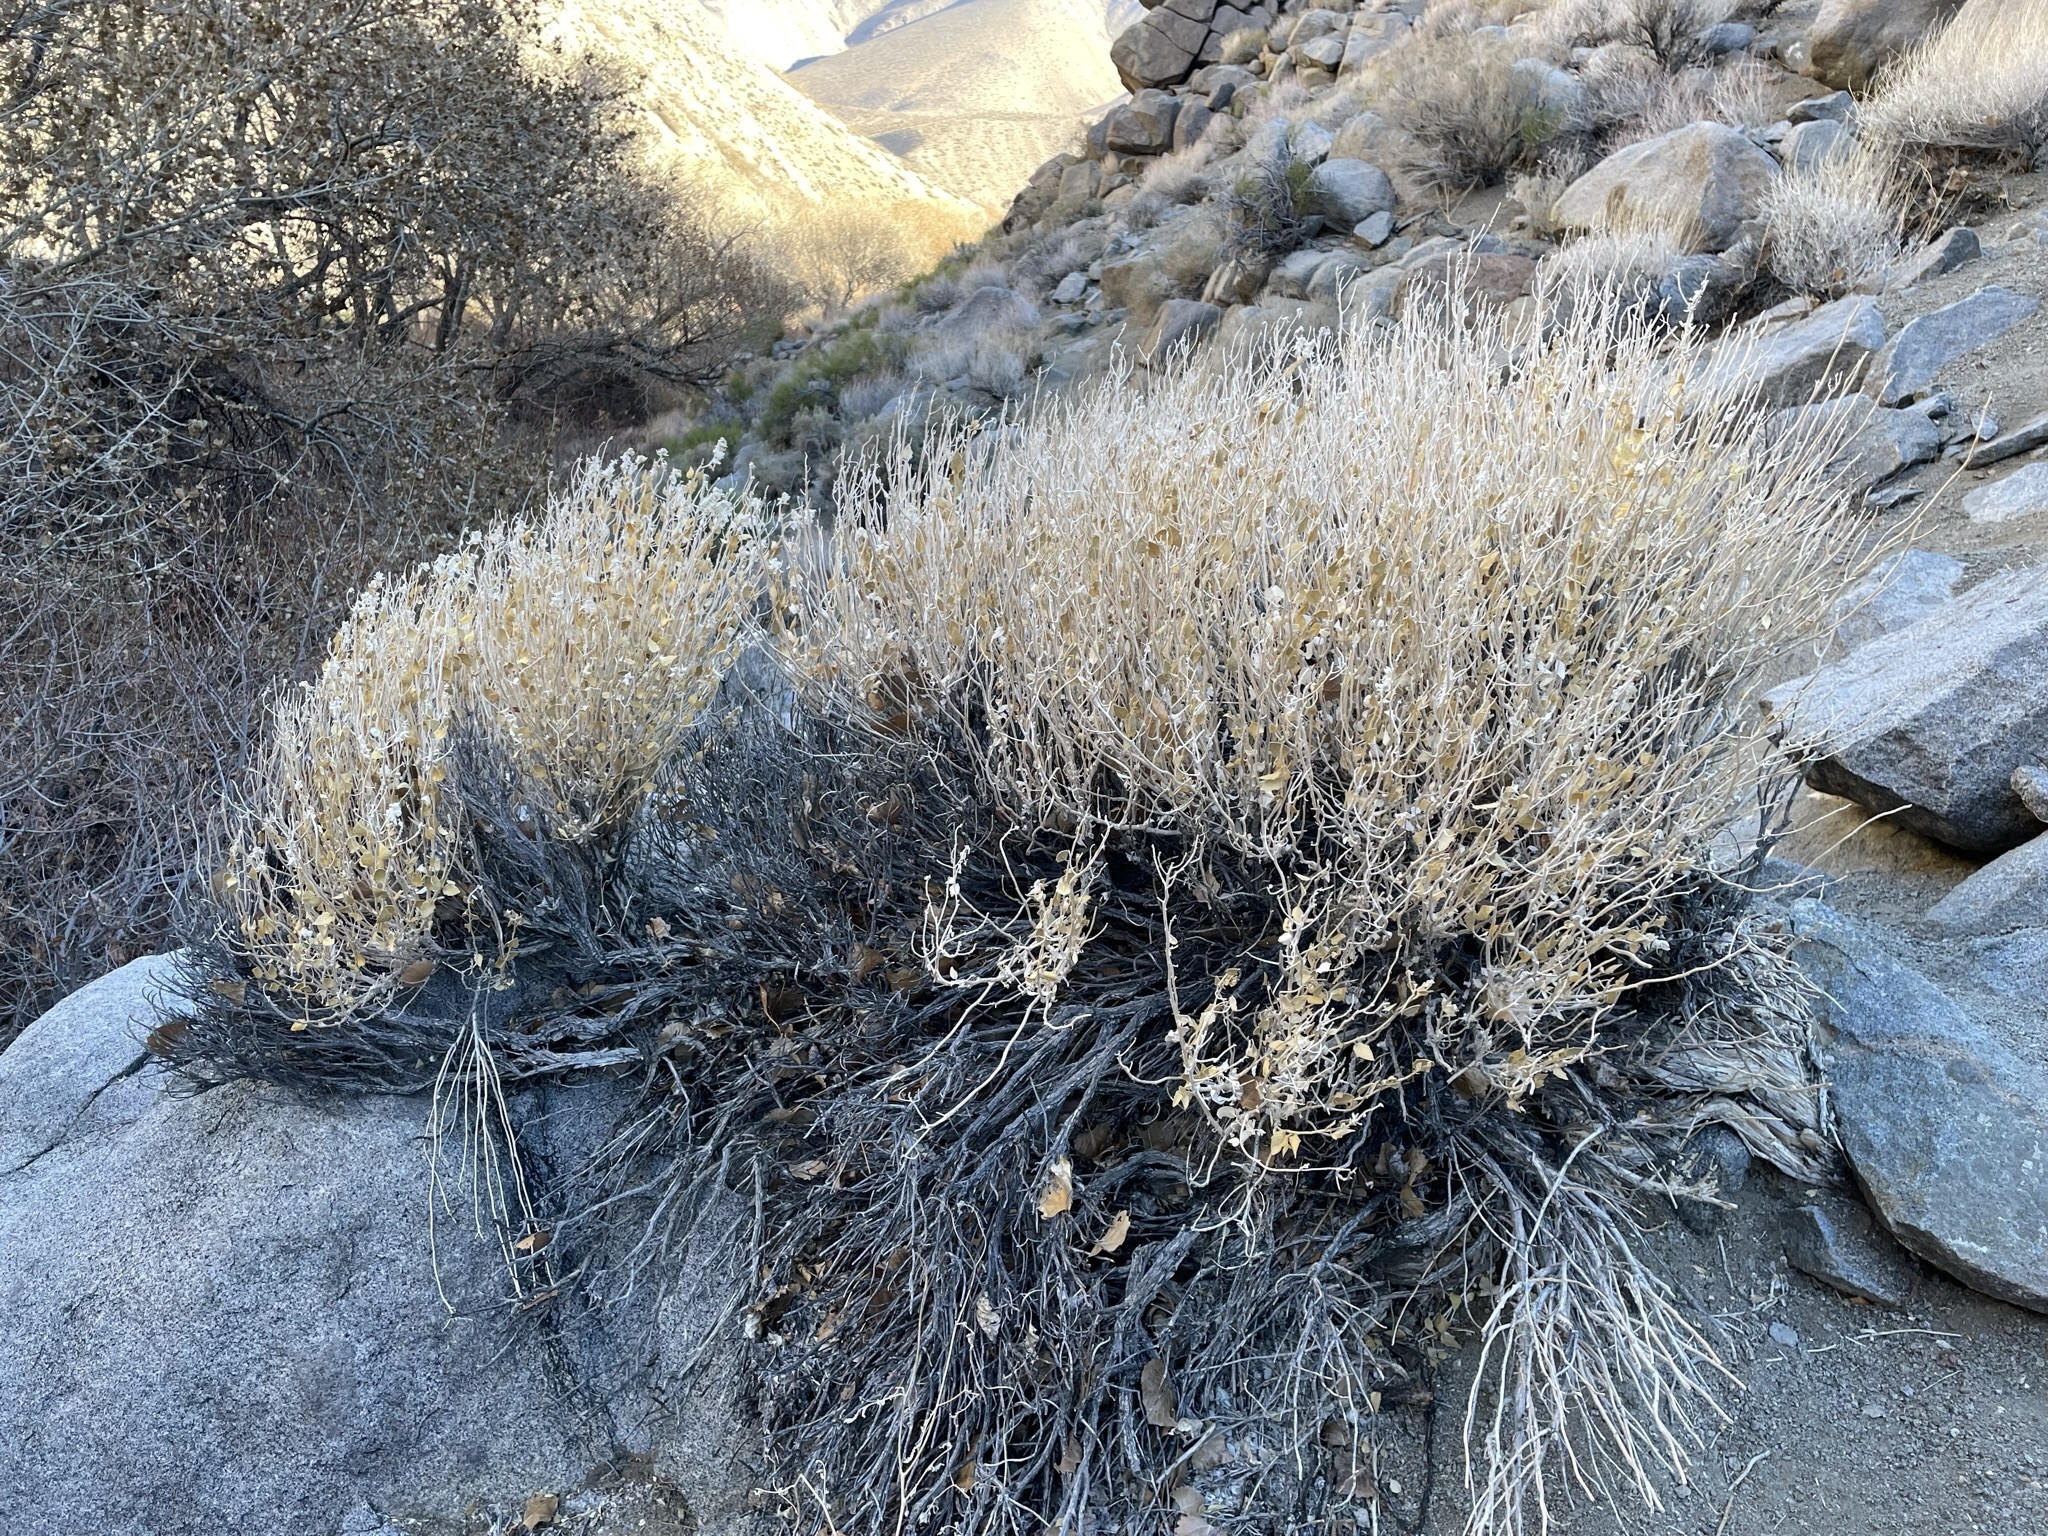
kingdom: Plantae
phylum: Tracheophyta
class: Magnoliopsida
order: Cornales
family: Loasaceae
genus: Petalonyx
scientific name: Petalonyx nitidus
